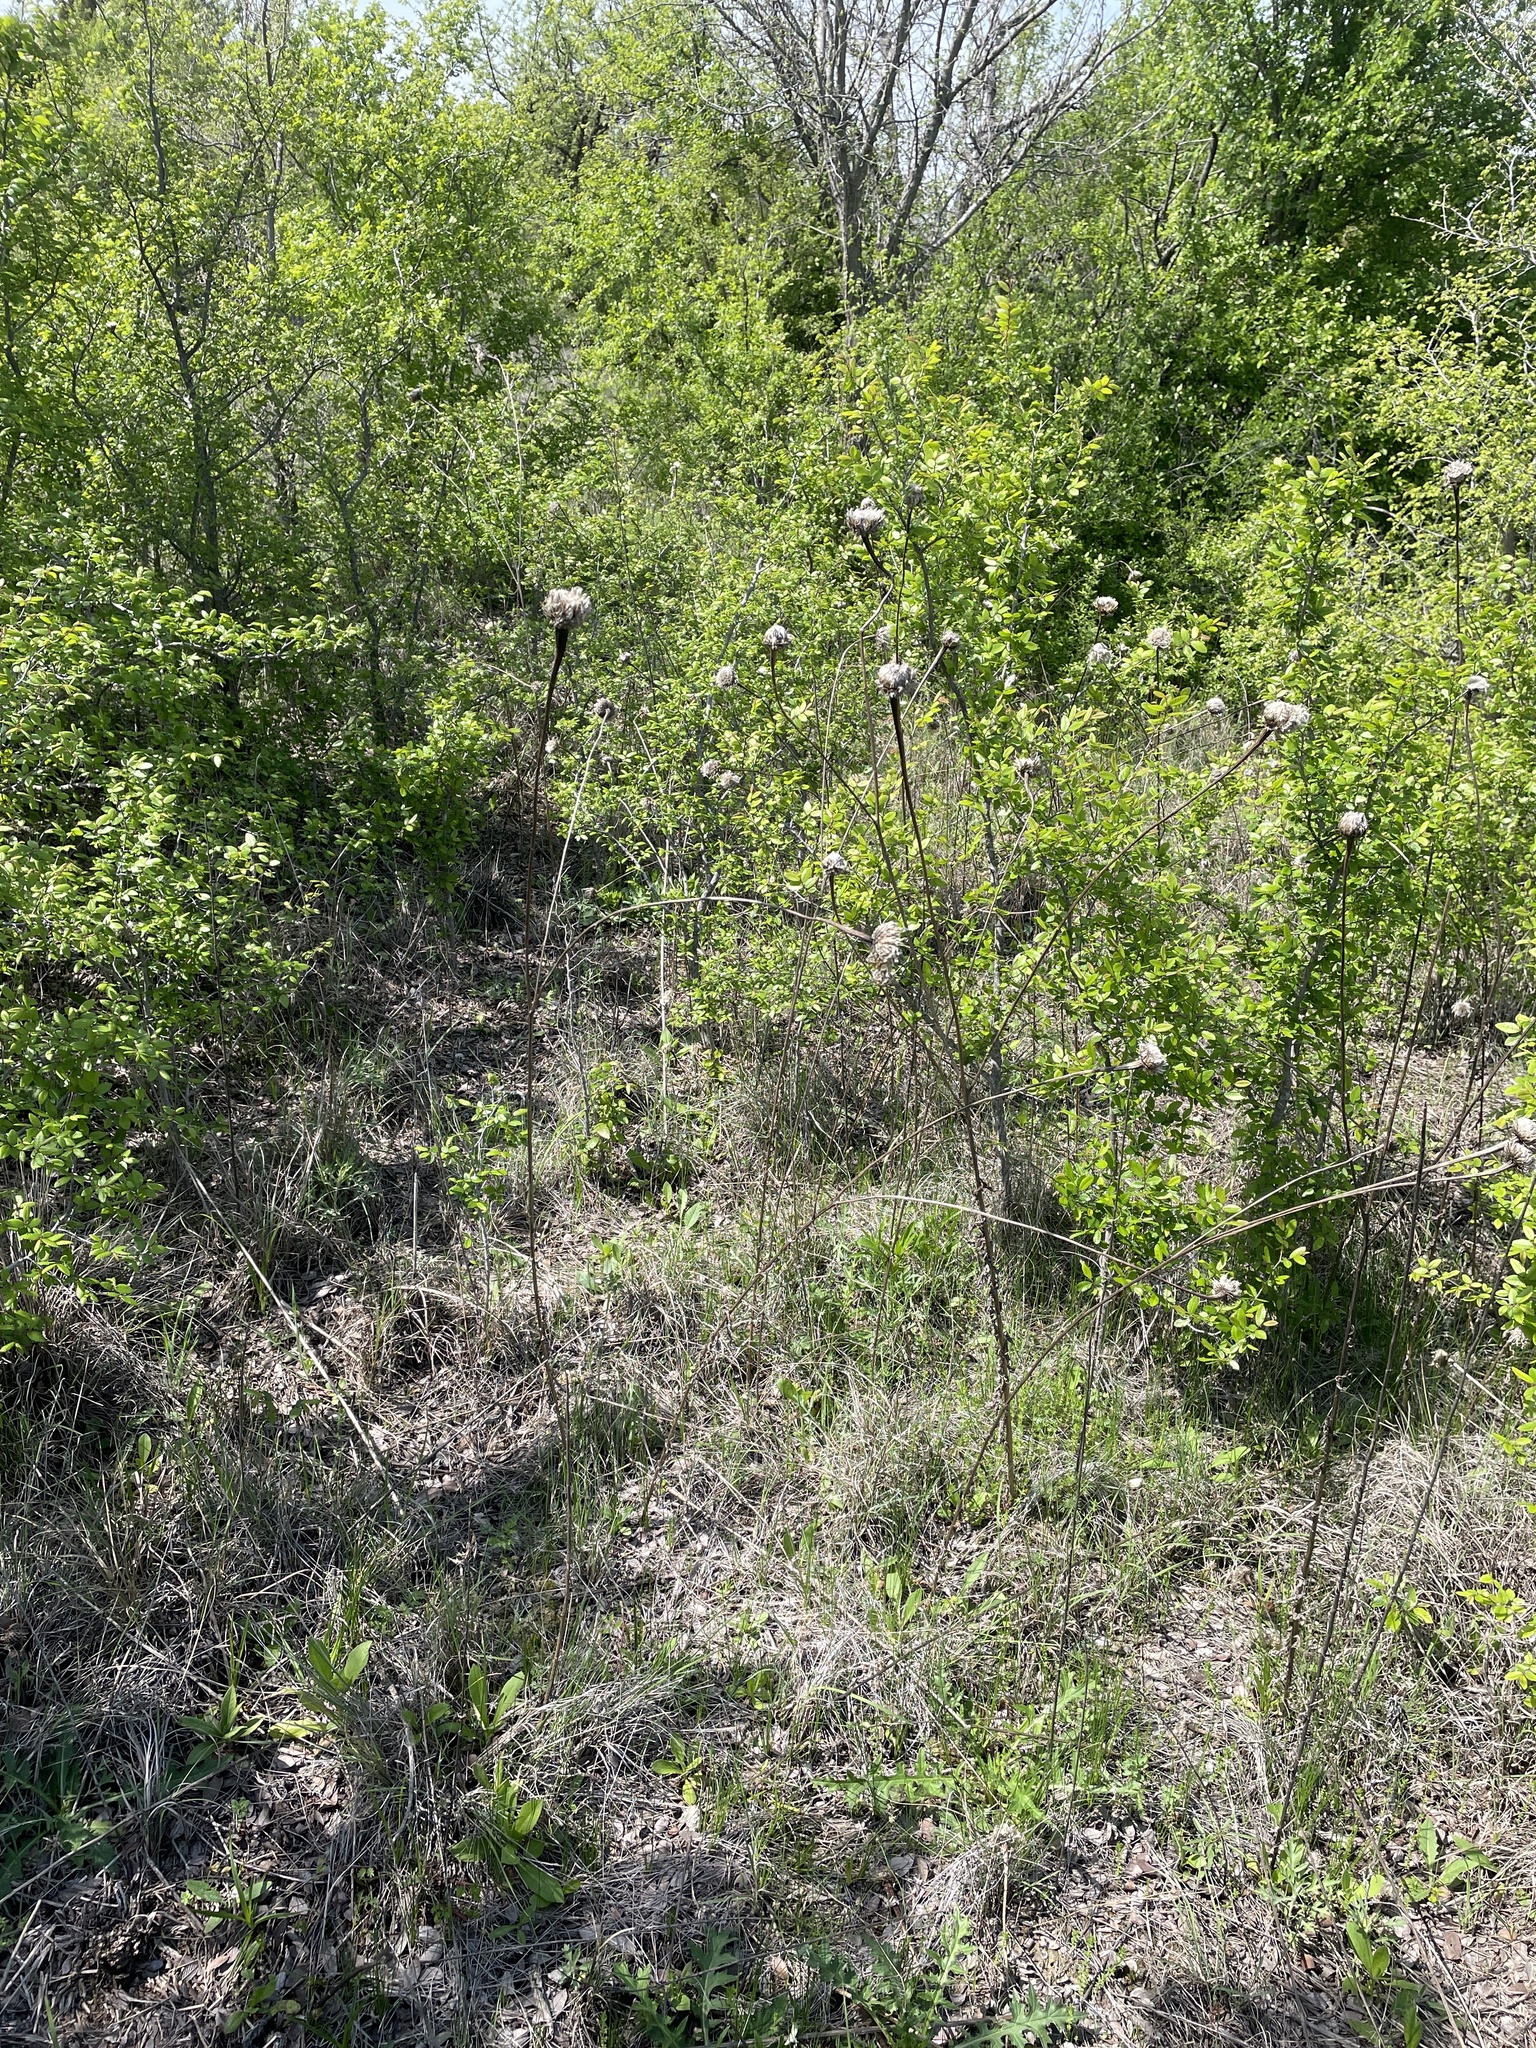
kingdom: Plantae
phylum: Tracheophyta
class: Magnoliopsida
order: Asterales
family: Asteraceae
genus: Plectocephalus
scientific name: Plectocephalus americanus
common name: American basket-flower
